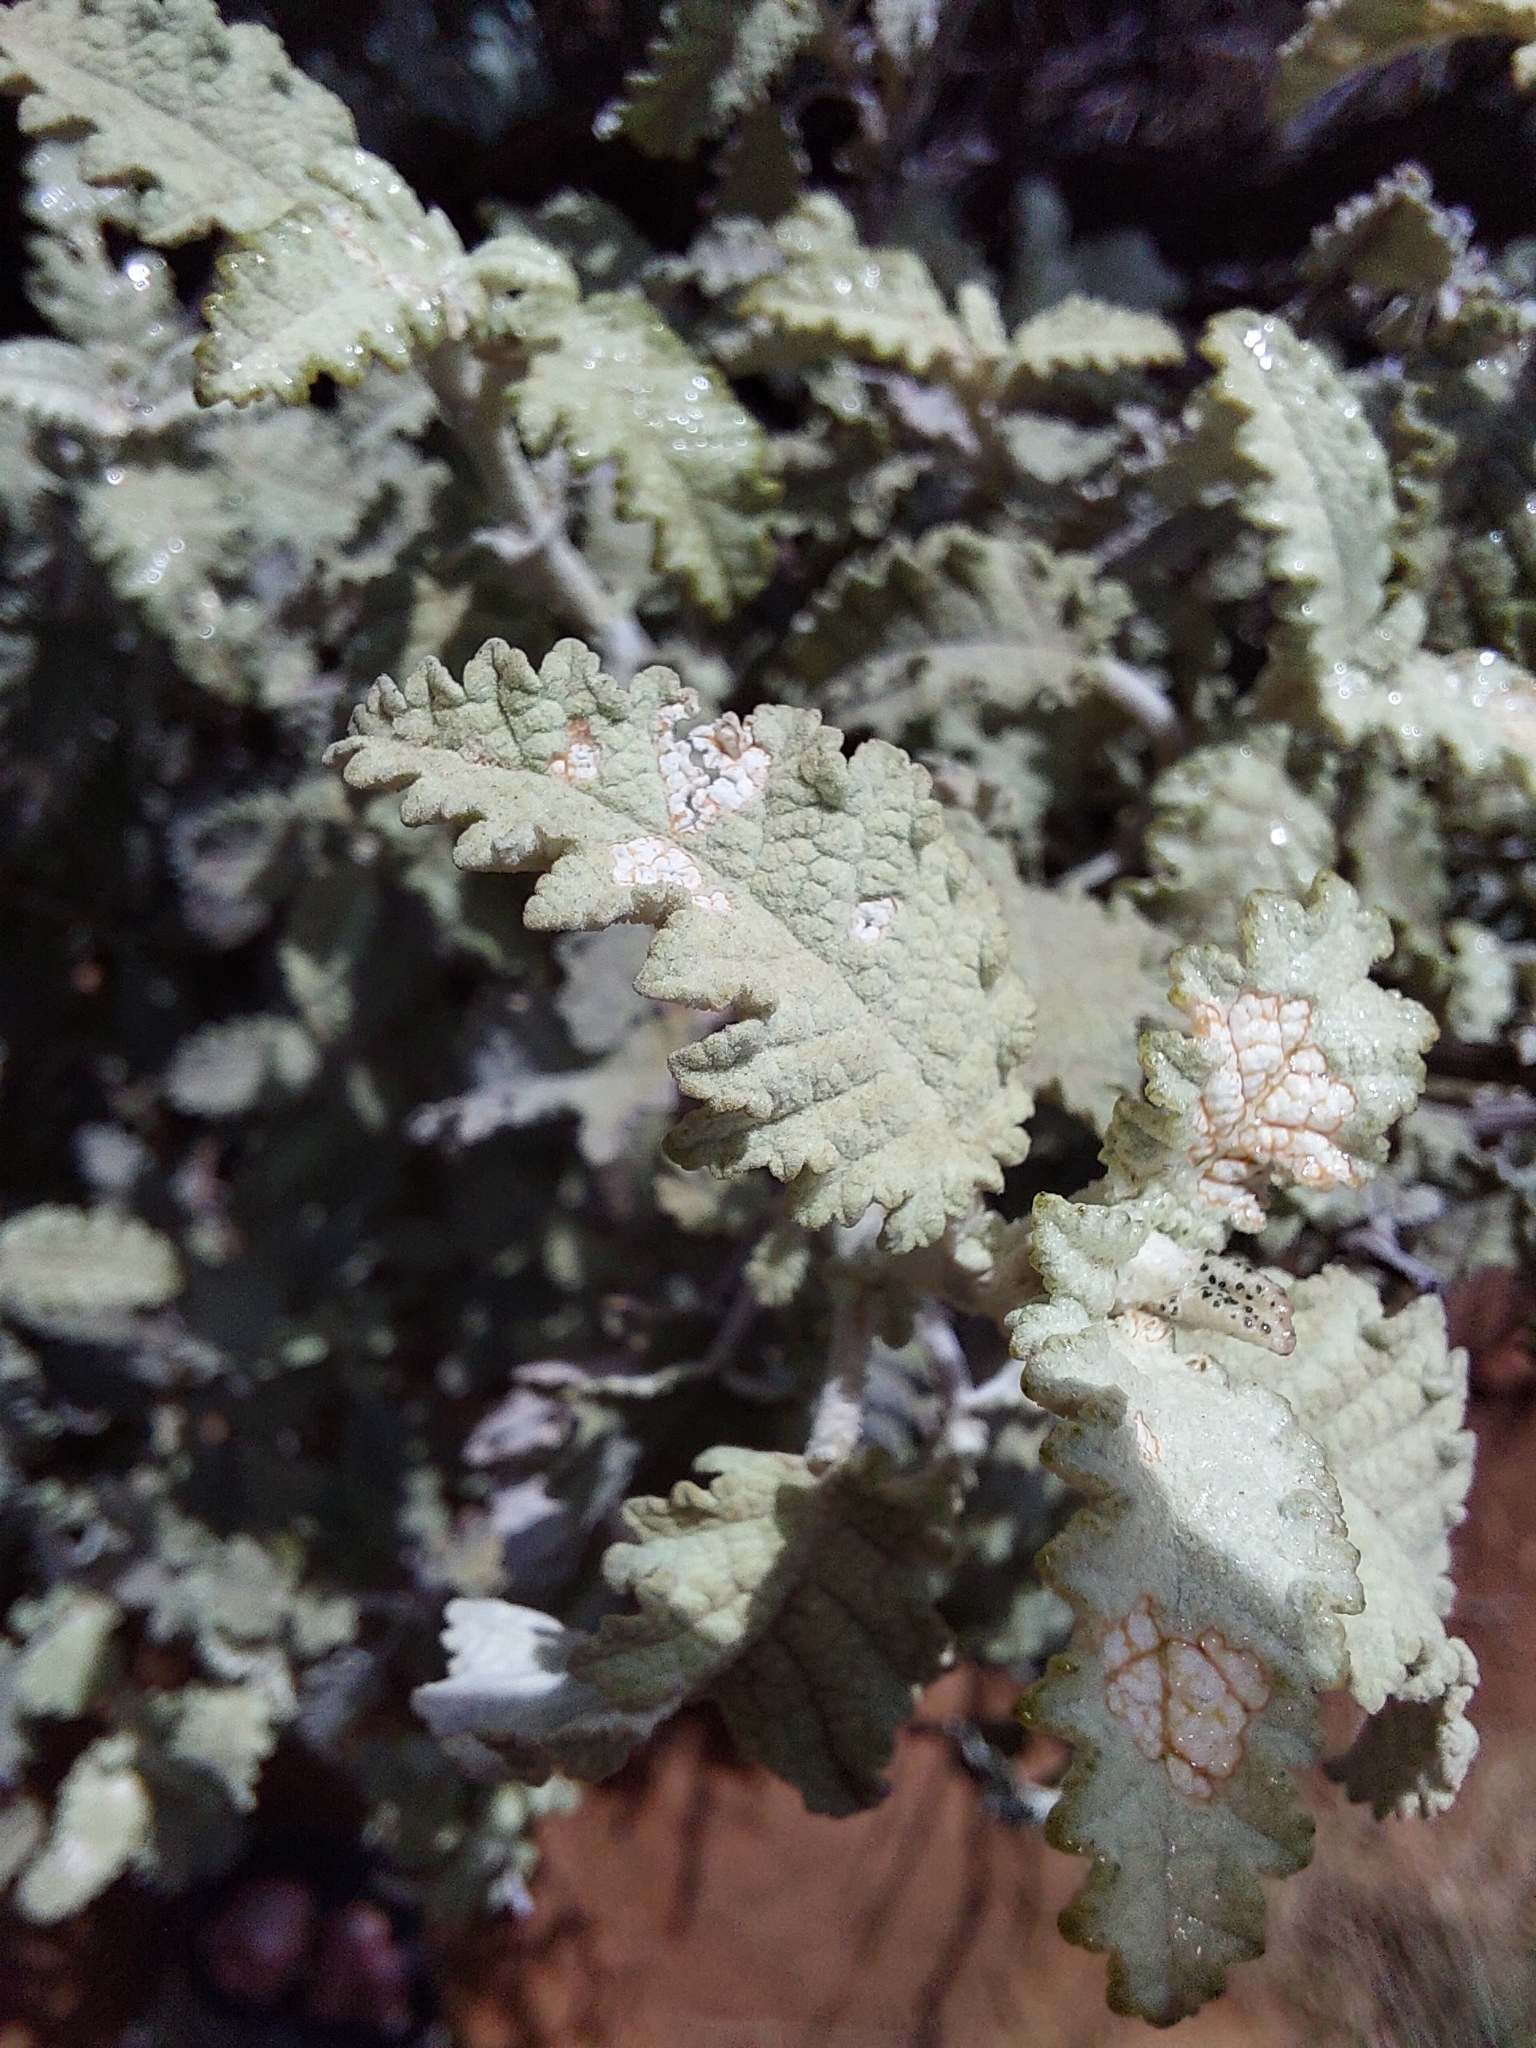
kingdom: Plantae
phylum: Tracheophyta
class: Magnoliopsida
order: Lamiales
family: Scrophulariaceae
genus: Buddleja
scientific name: Buddleja glomerata
